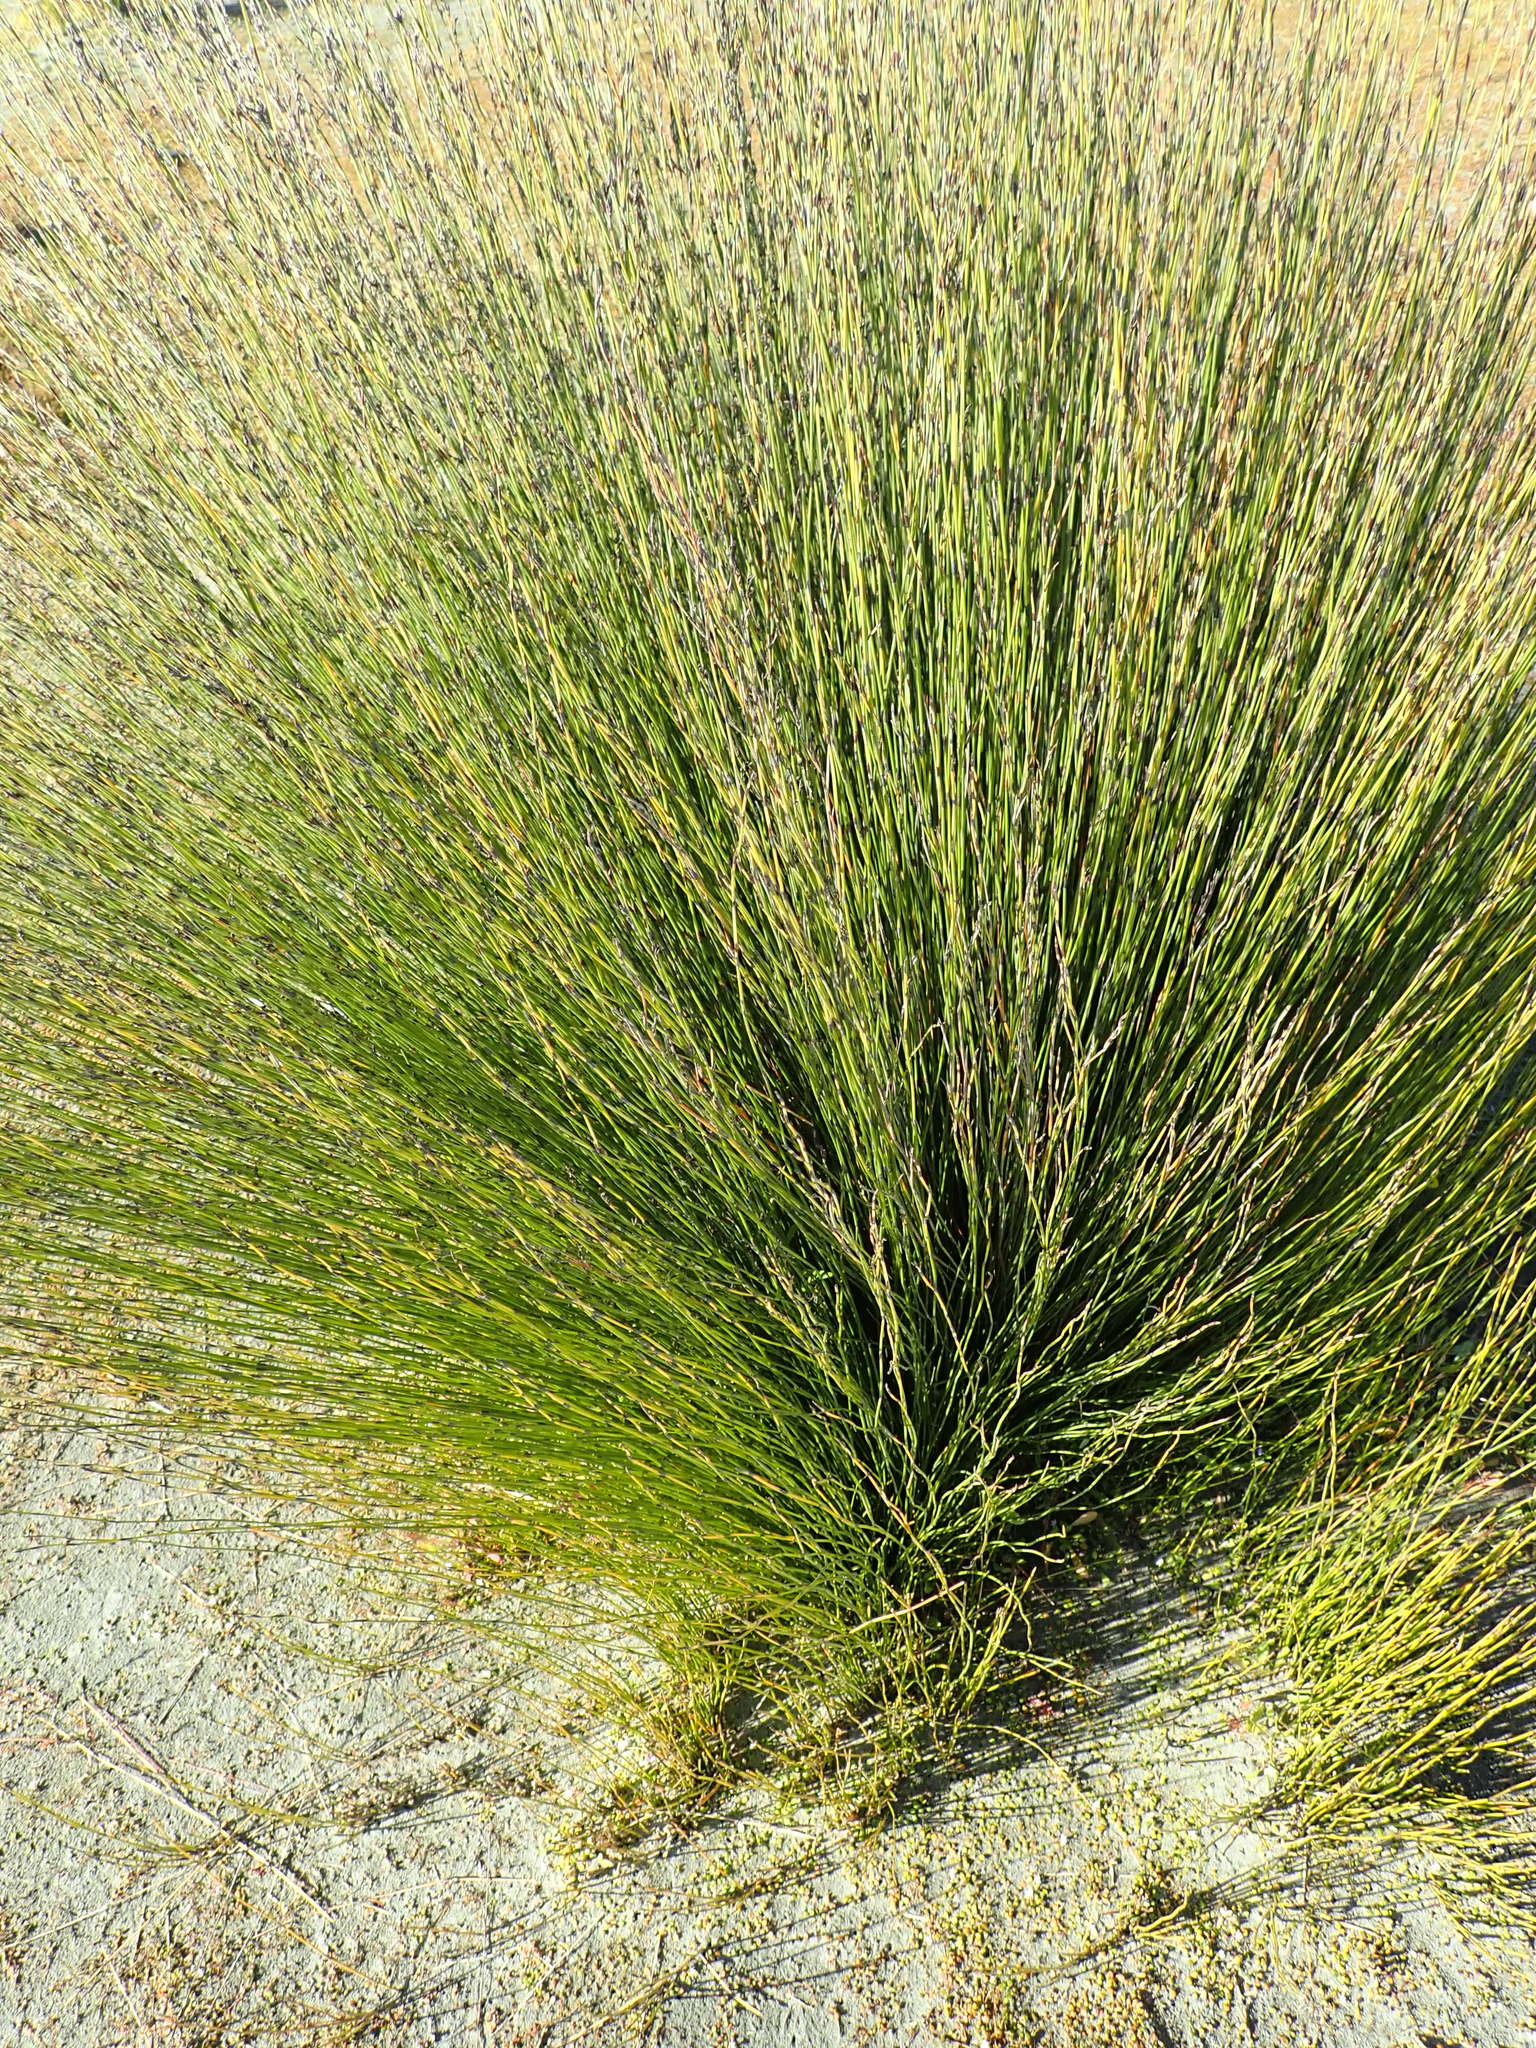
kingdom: Plantae
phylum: Tracheophyta
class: Liliopsida
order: Poales
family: Restionaceae
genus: Apodasmia
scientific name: Apodasmia similis
